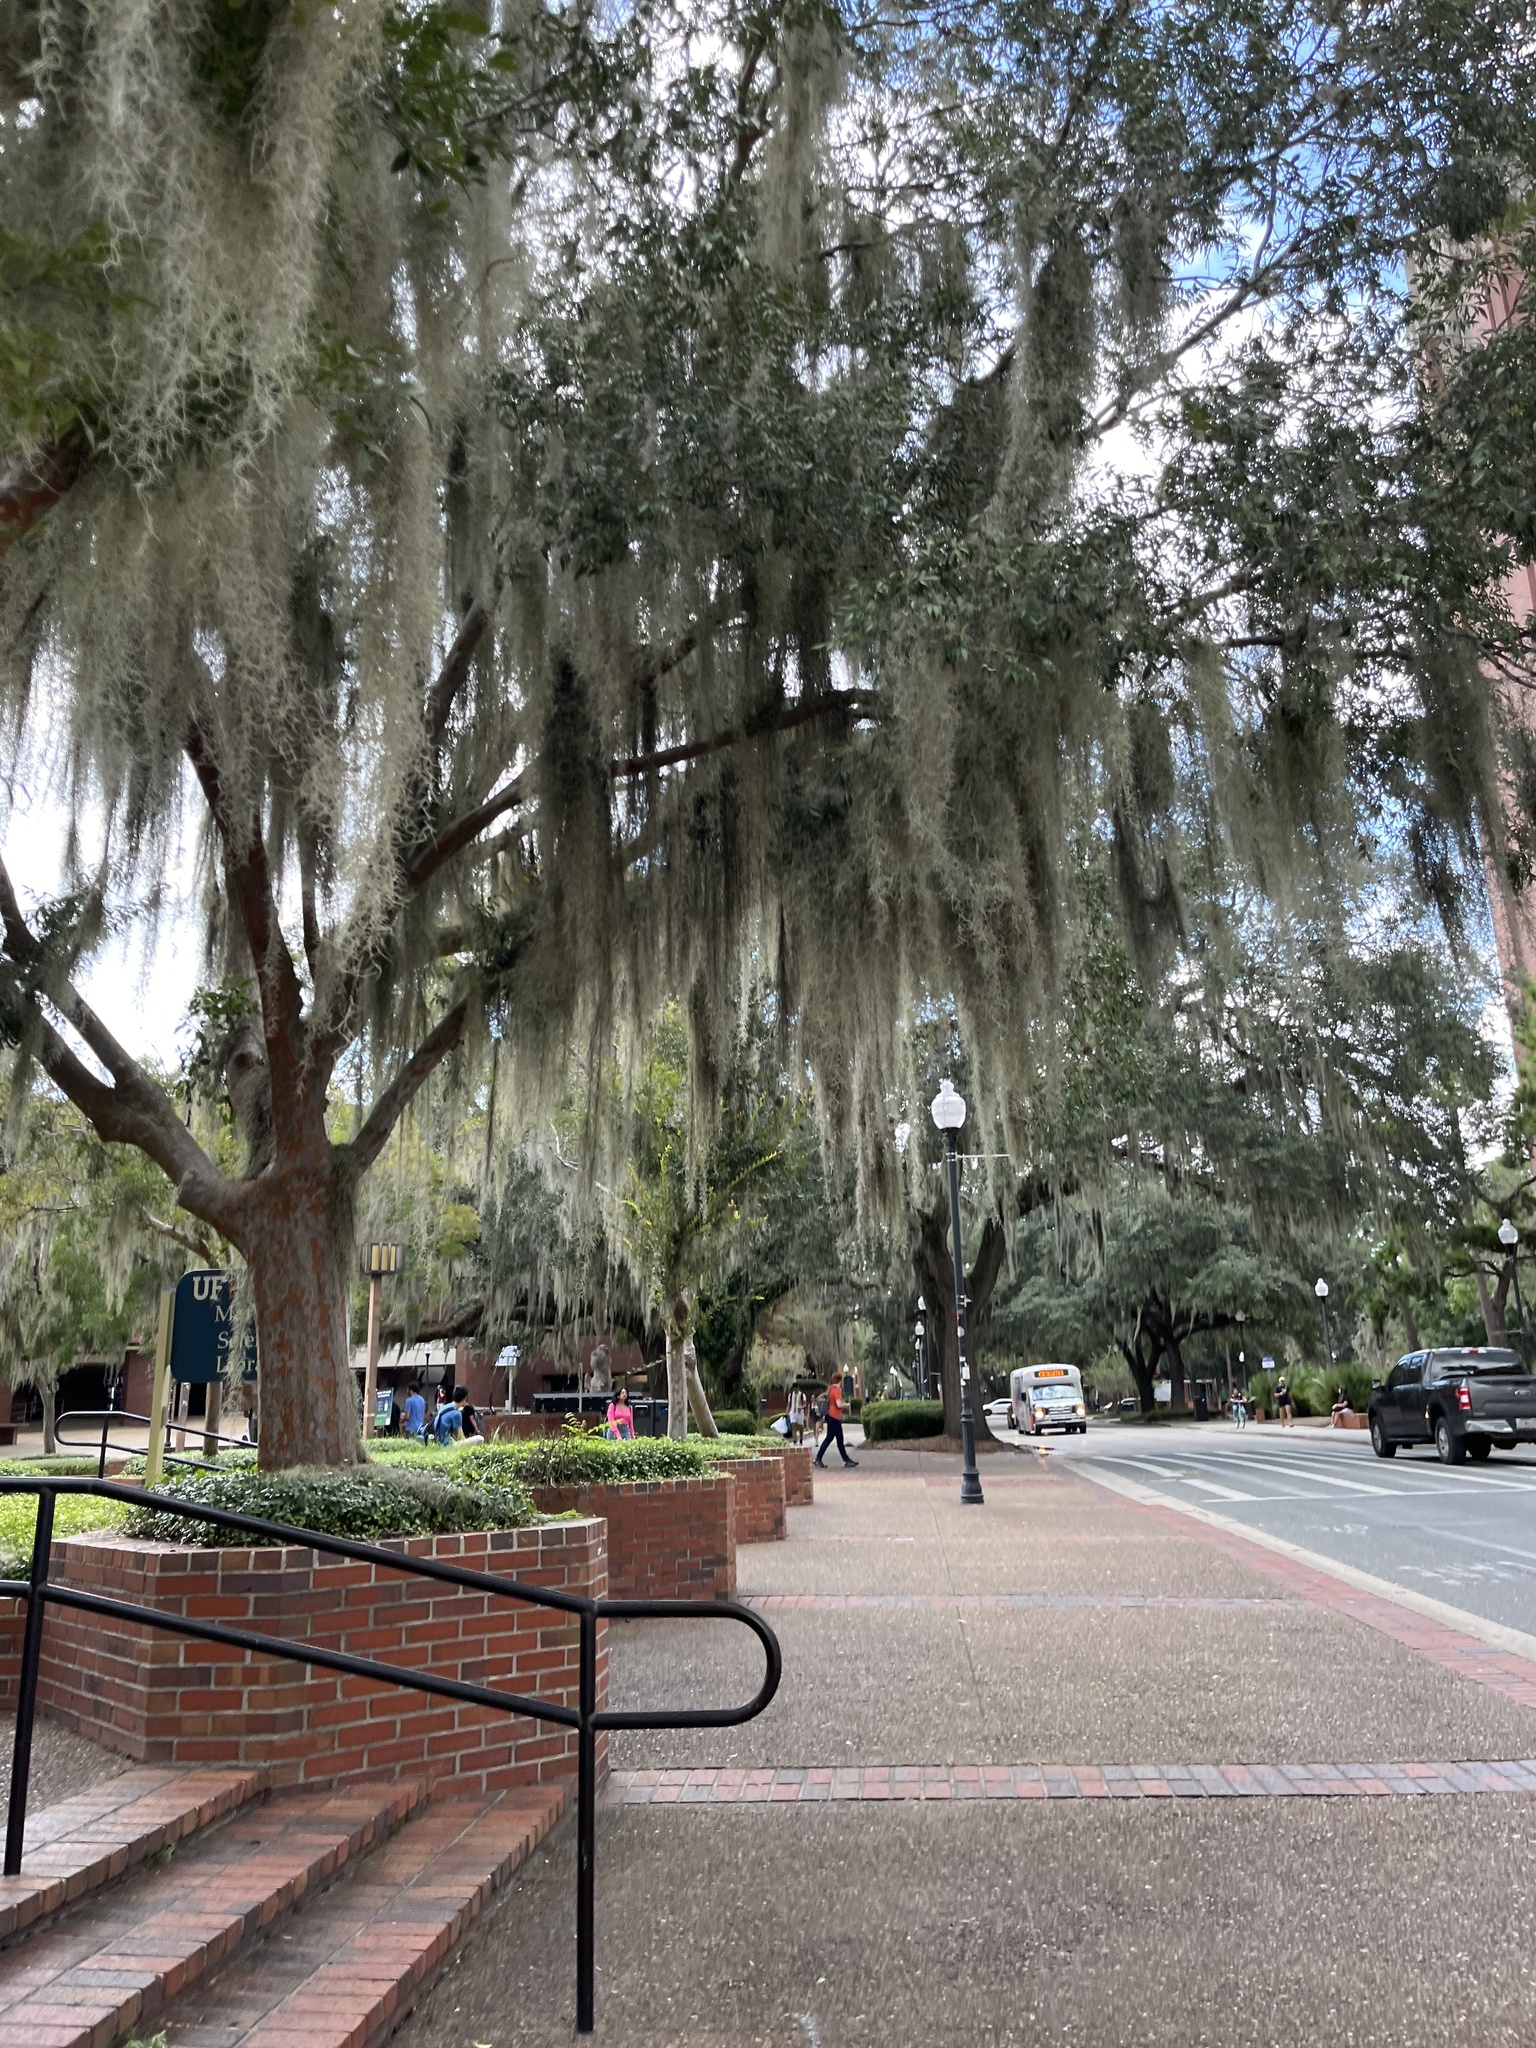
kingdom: Plantae
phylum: Tracheophyta
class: Liliopsida
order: Poales
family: Bromeliaceae
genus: Tillandsia
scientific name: Tillandsia usneoides
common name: Spanish moss
